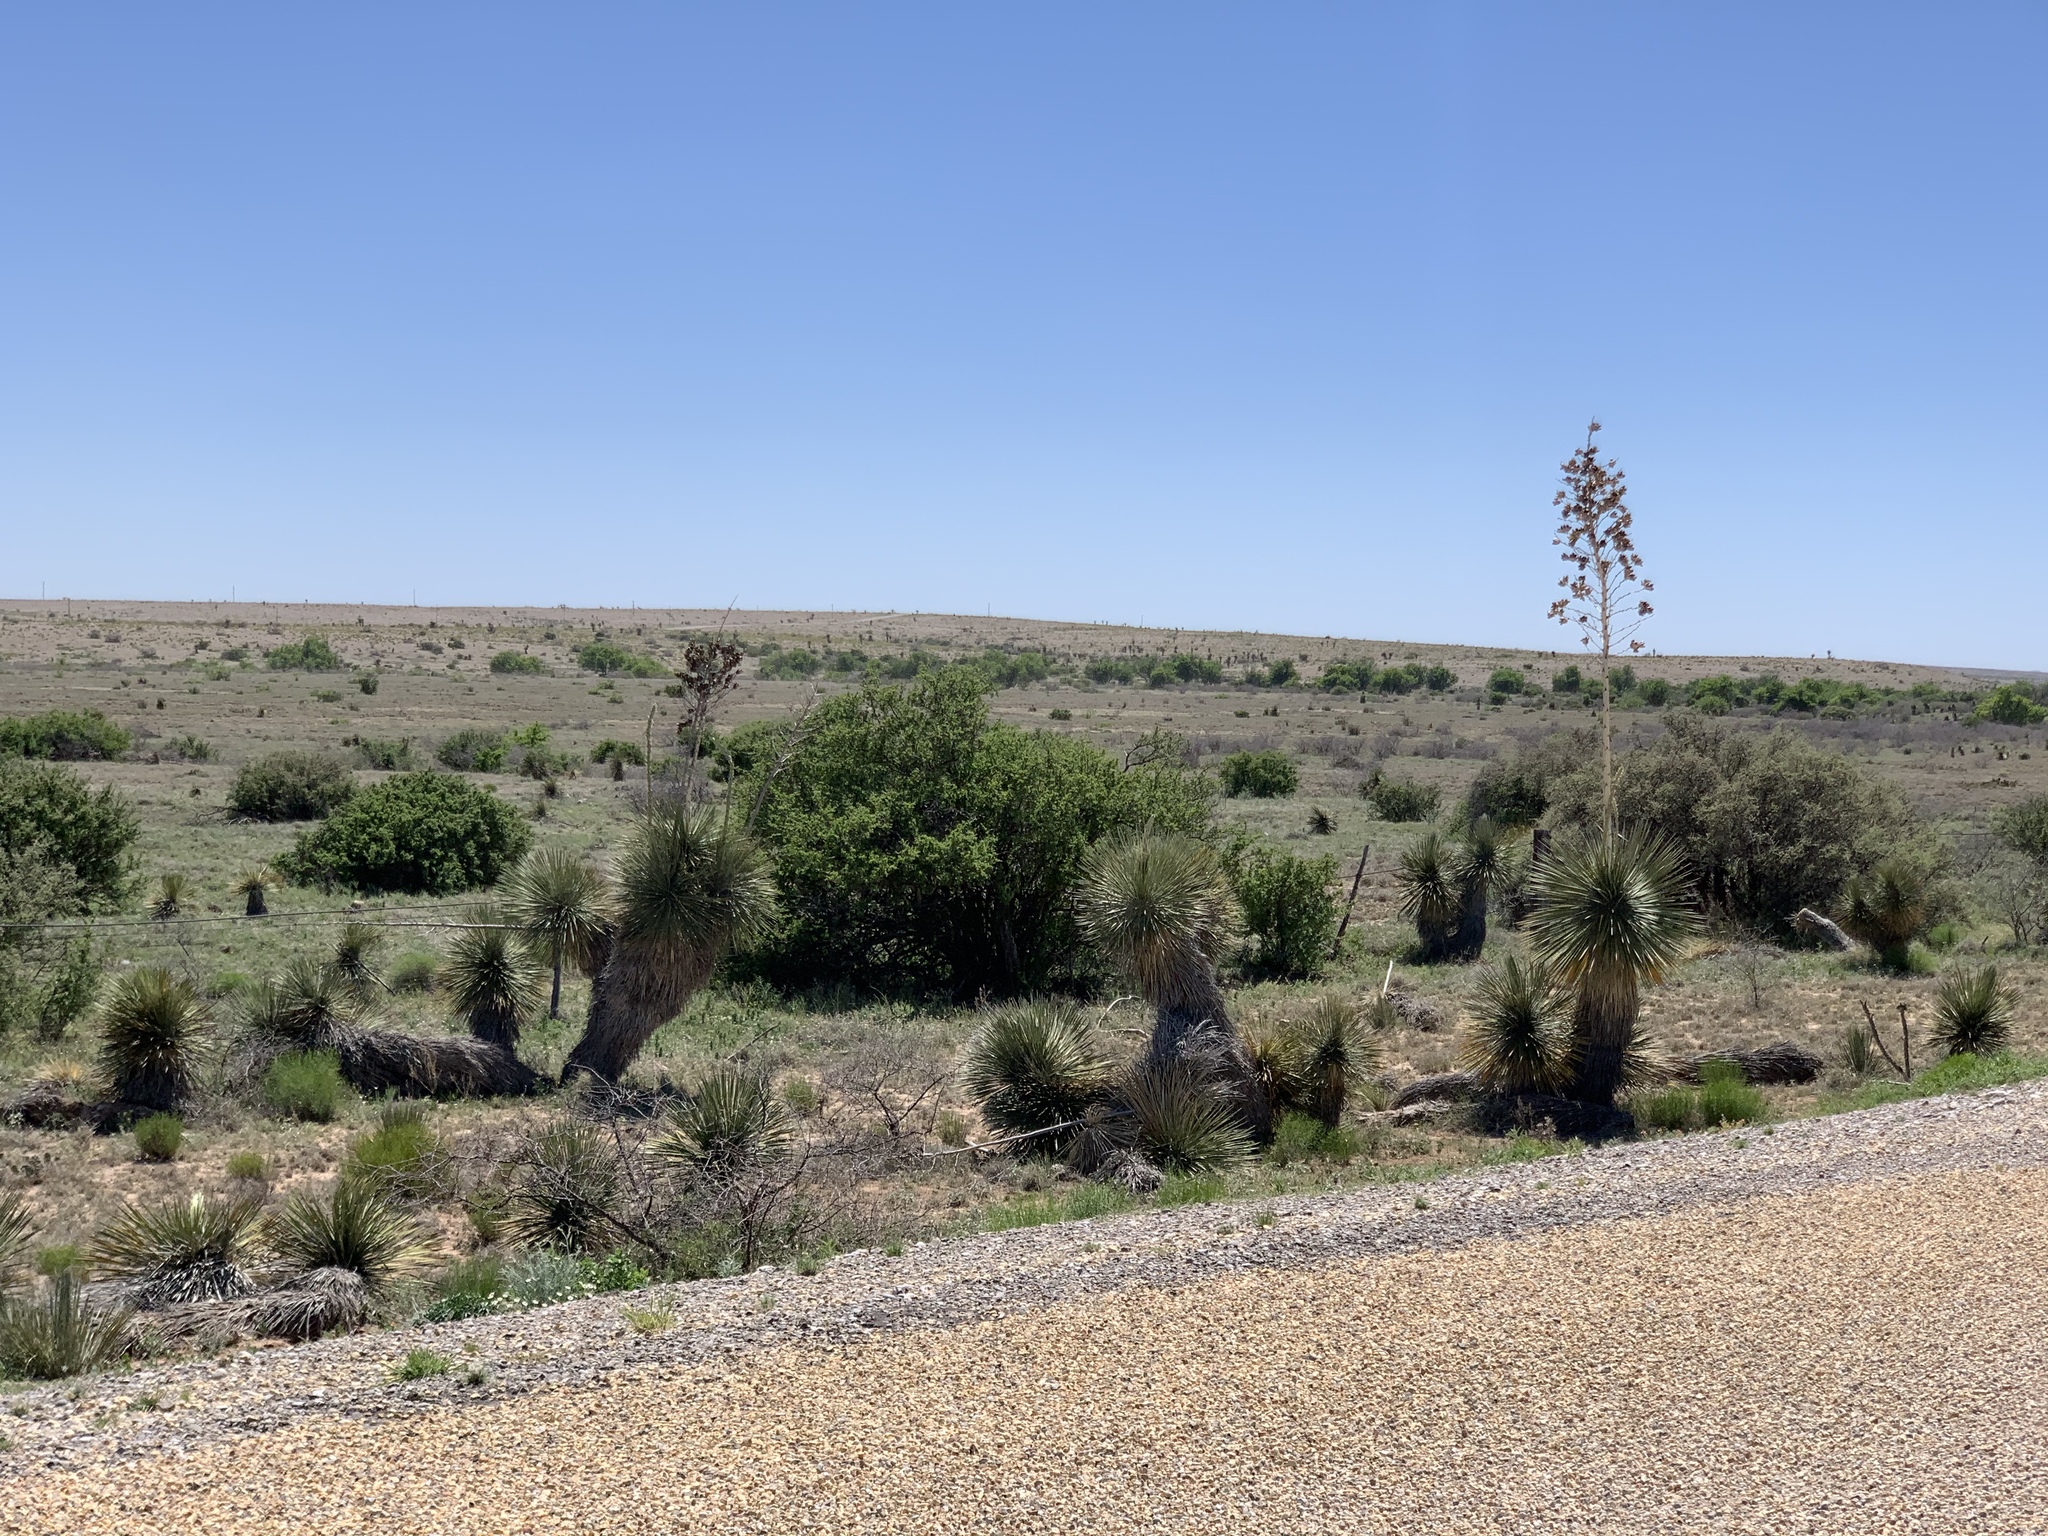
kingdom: Plantae
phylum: Tracheophyta
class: Liliopsida
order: Asparagales
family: Asparagaceae
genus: Yucca
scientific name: Yucca elata
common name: Palmella
